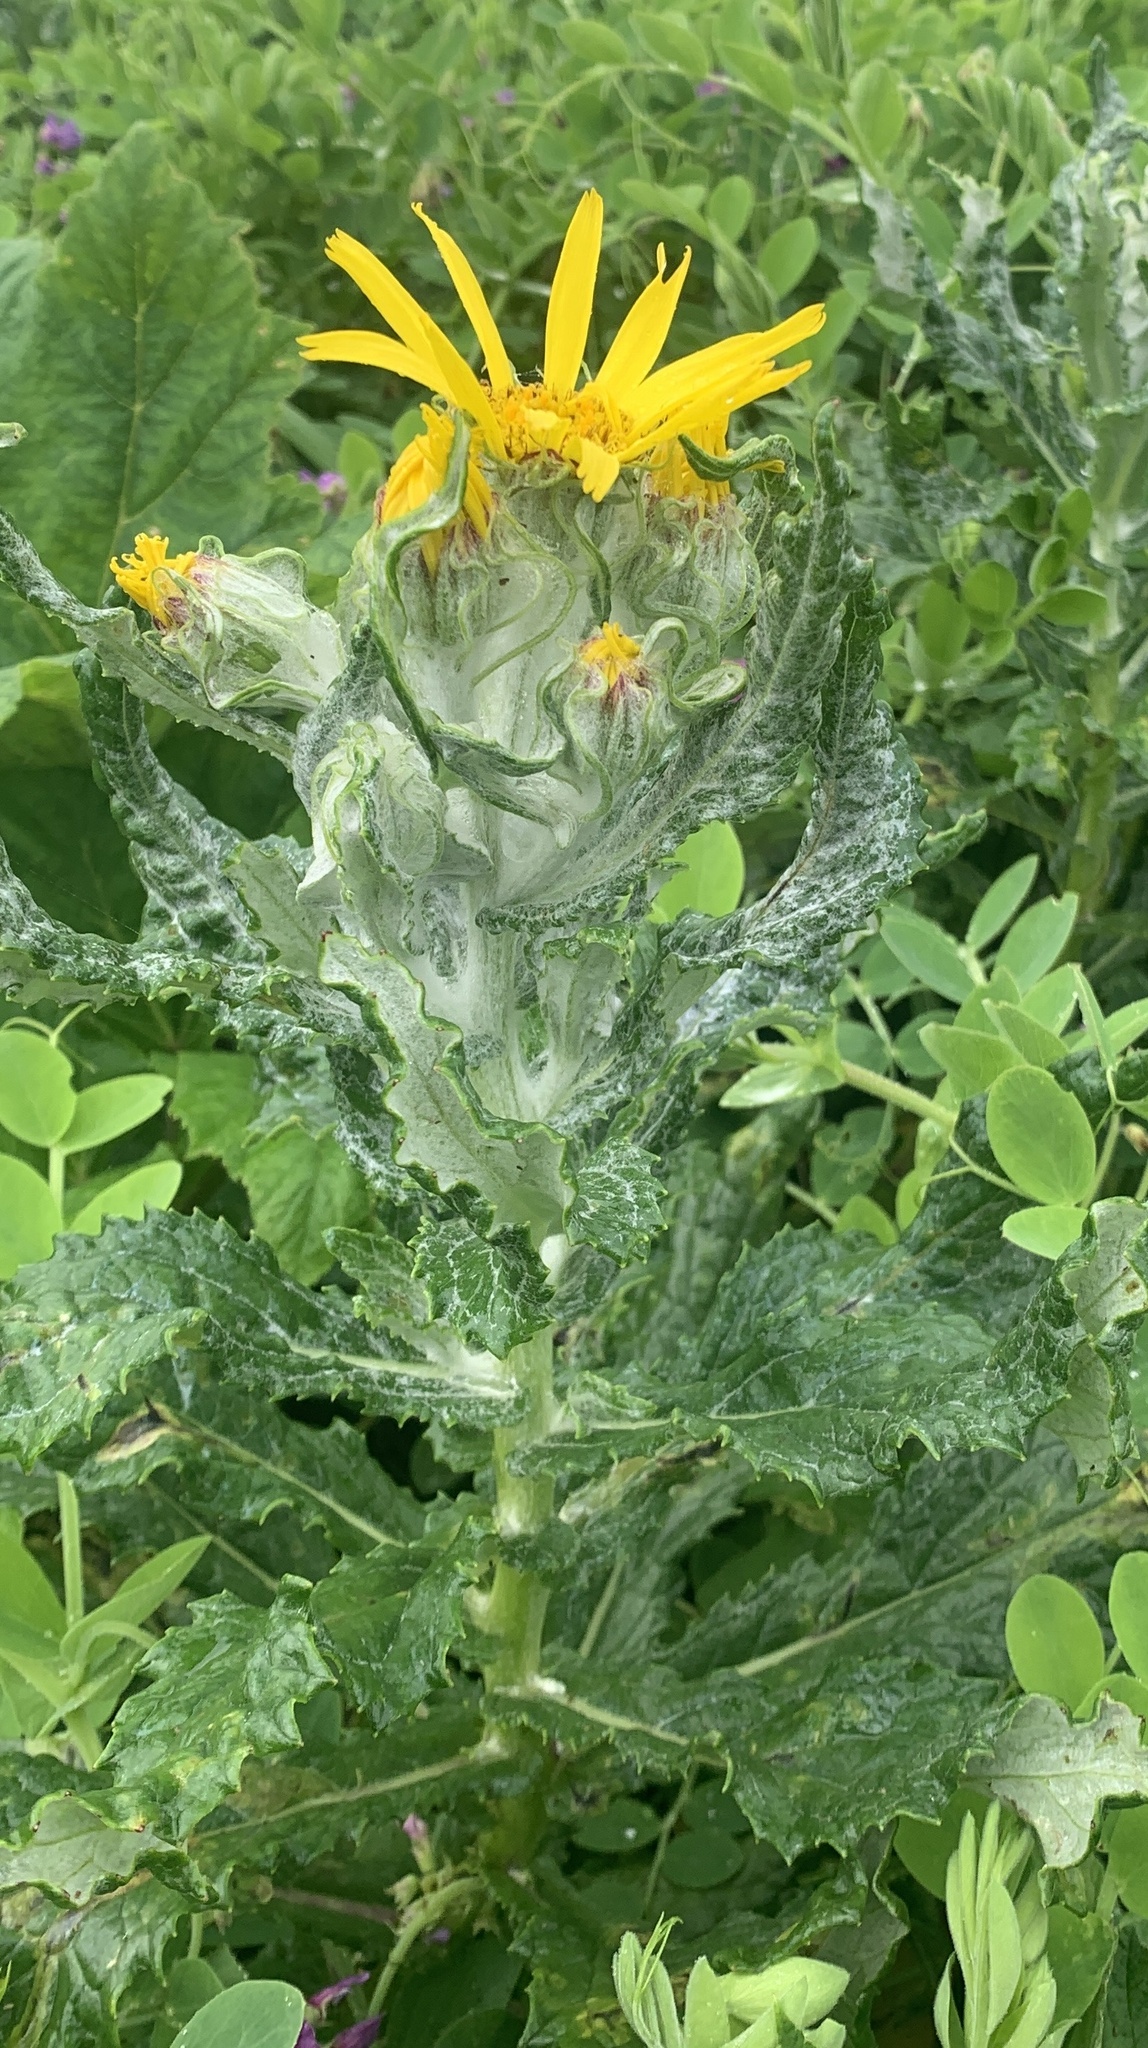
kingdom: Plantae
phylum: Tracheophyta
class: Magnoliopsida
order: Asterales
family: Asteraceae
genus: Jacobaea
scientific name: Jacobaea pseudoarnica
